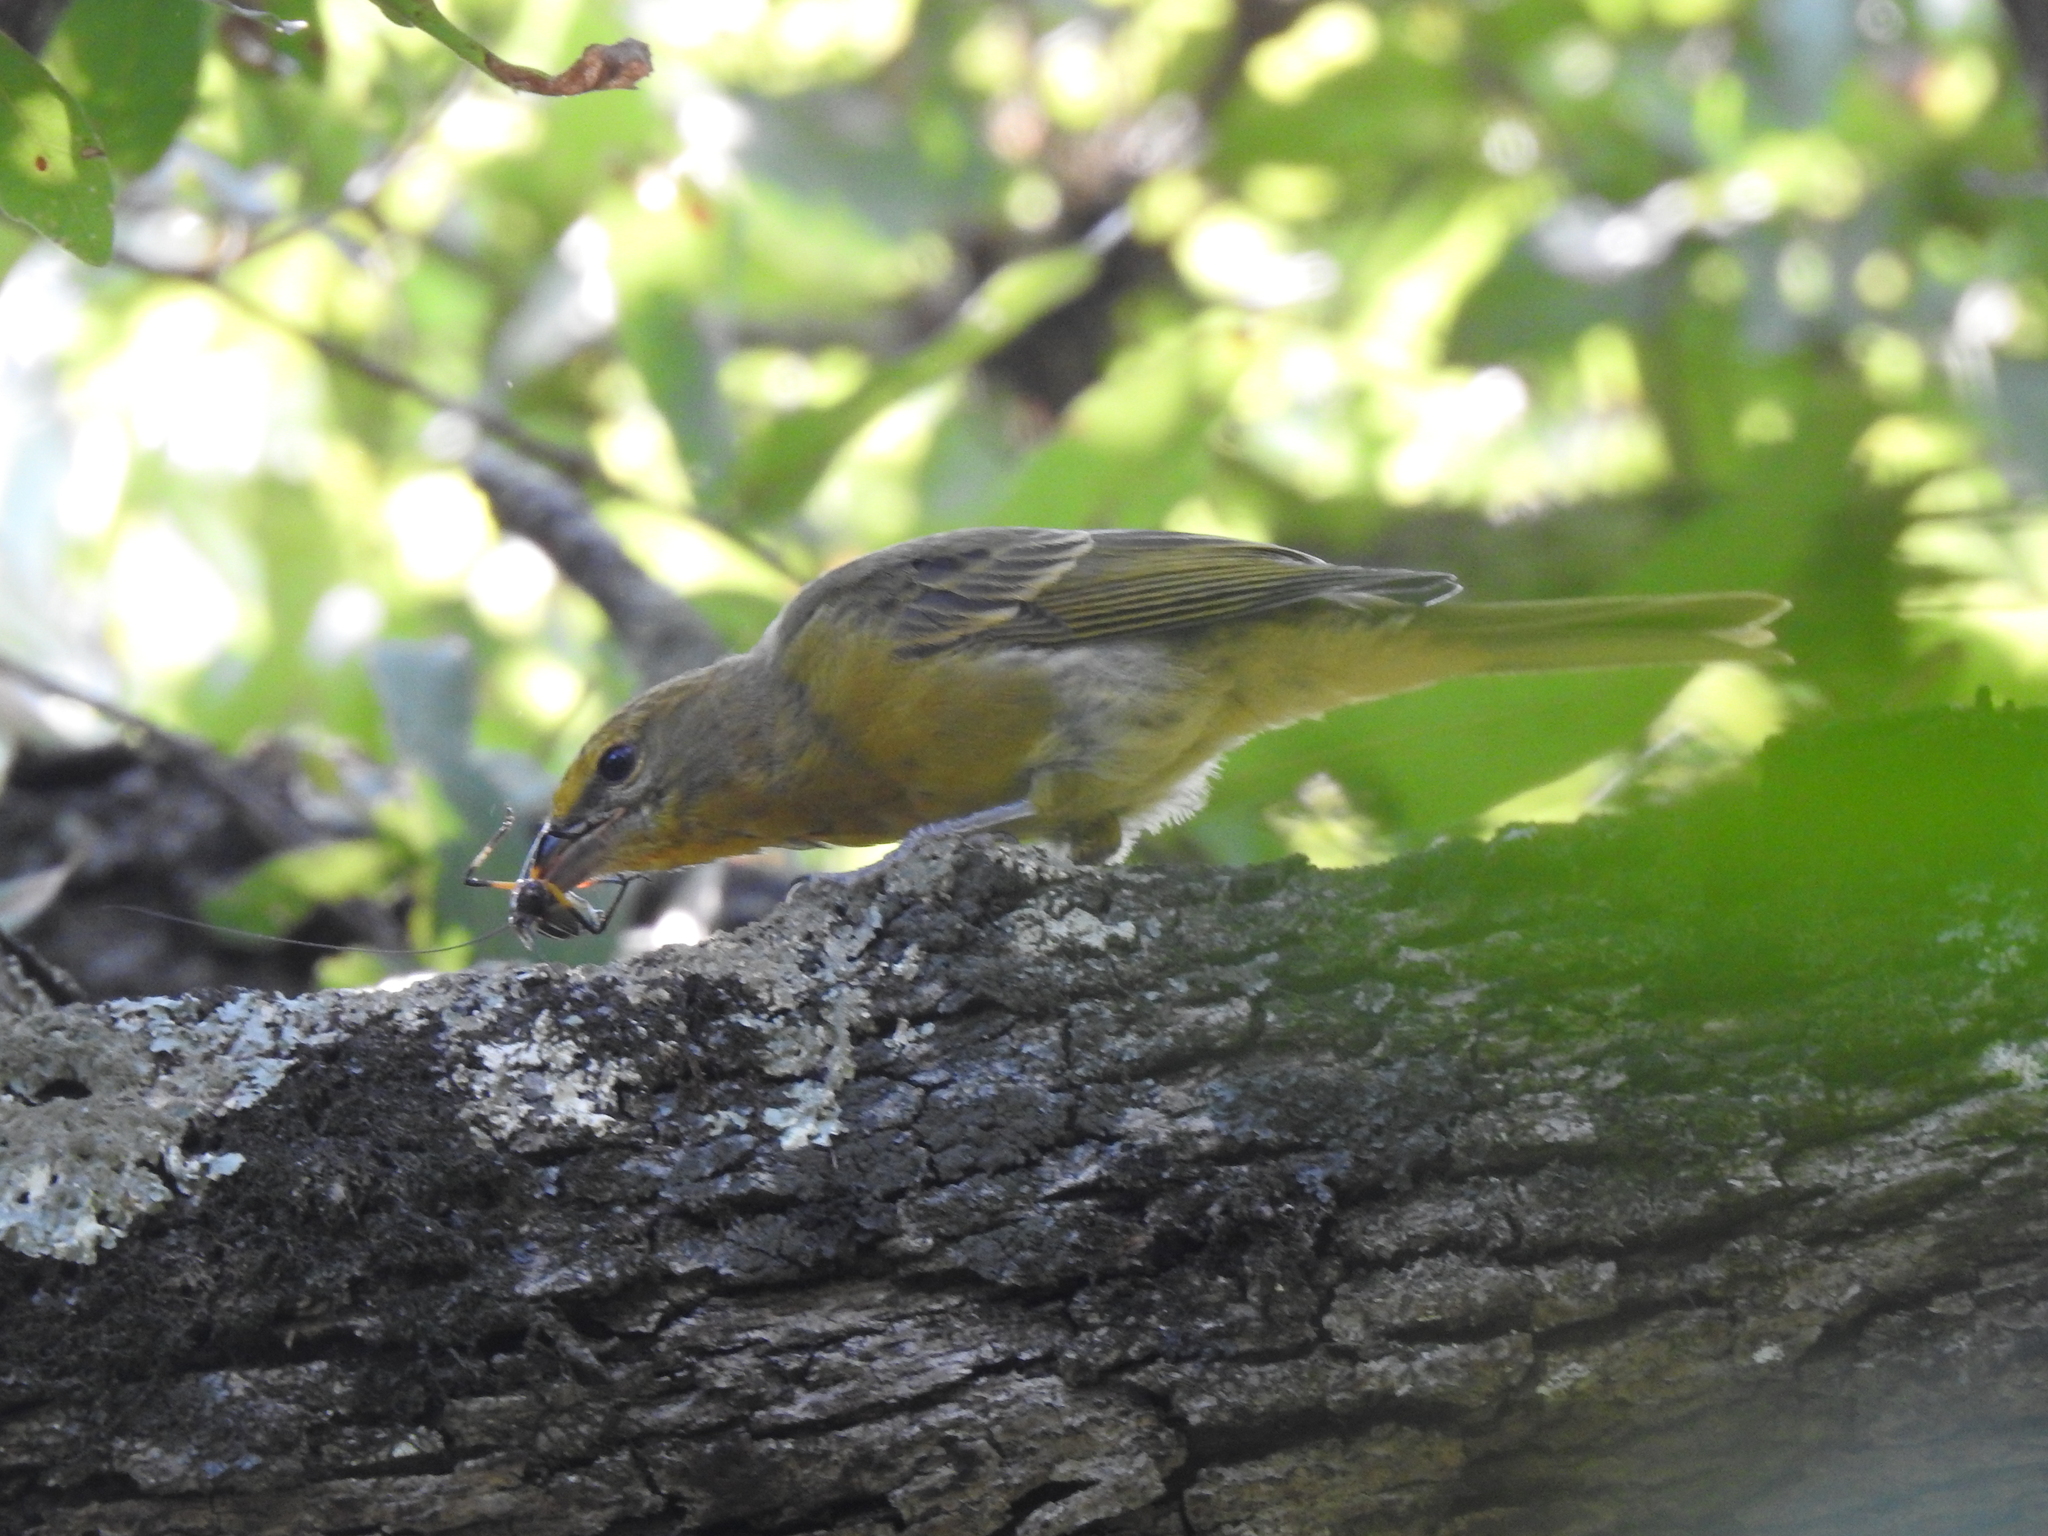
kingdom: Animalia
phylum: Chordata
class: Aves
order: Passeriformes
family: Cardinalidae
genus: Piranga
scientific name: Piranga flava
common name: Red tanager
